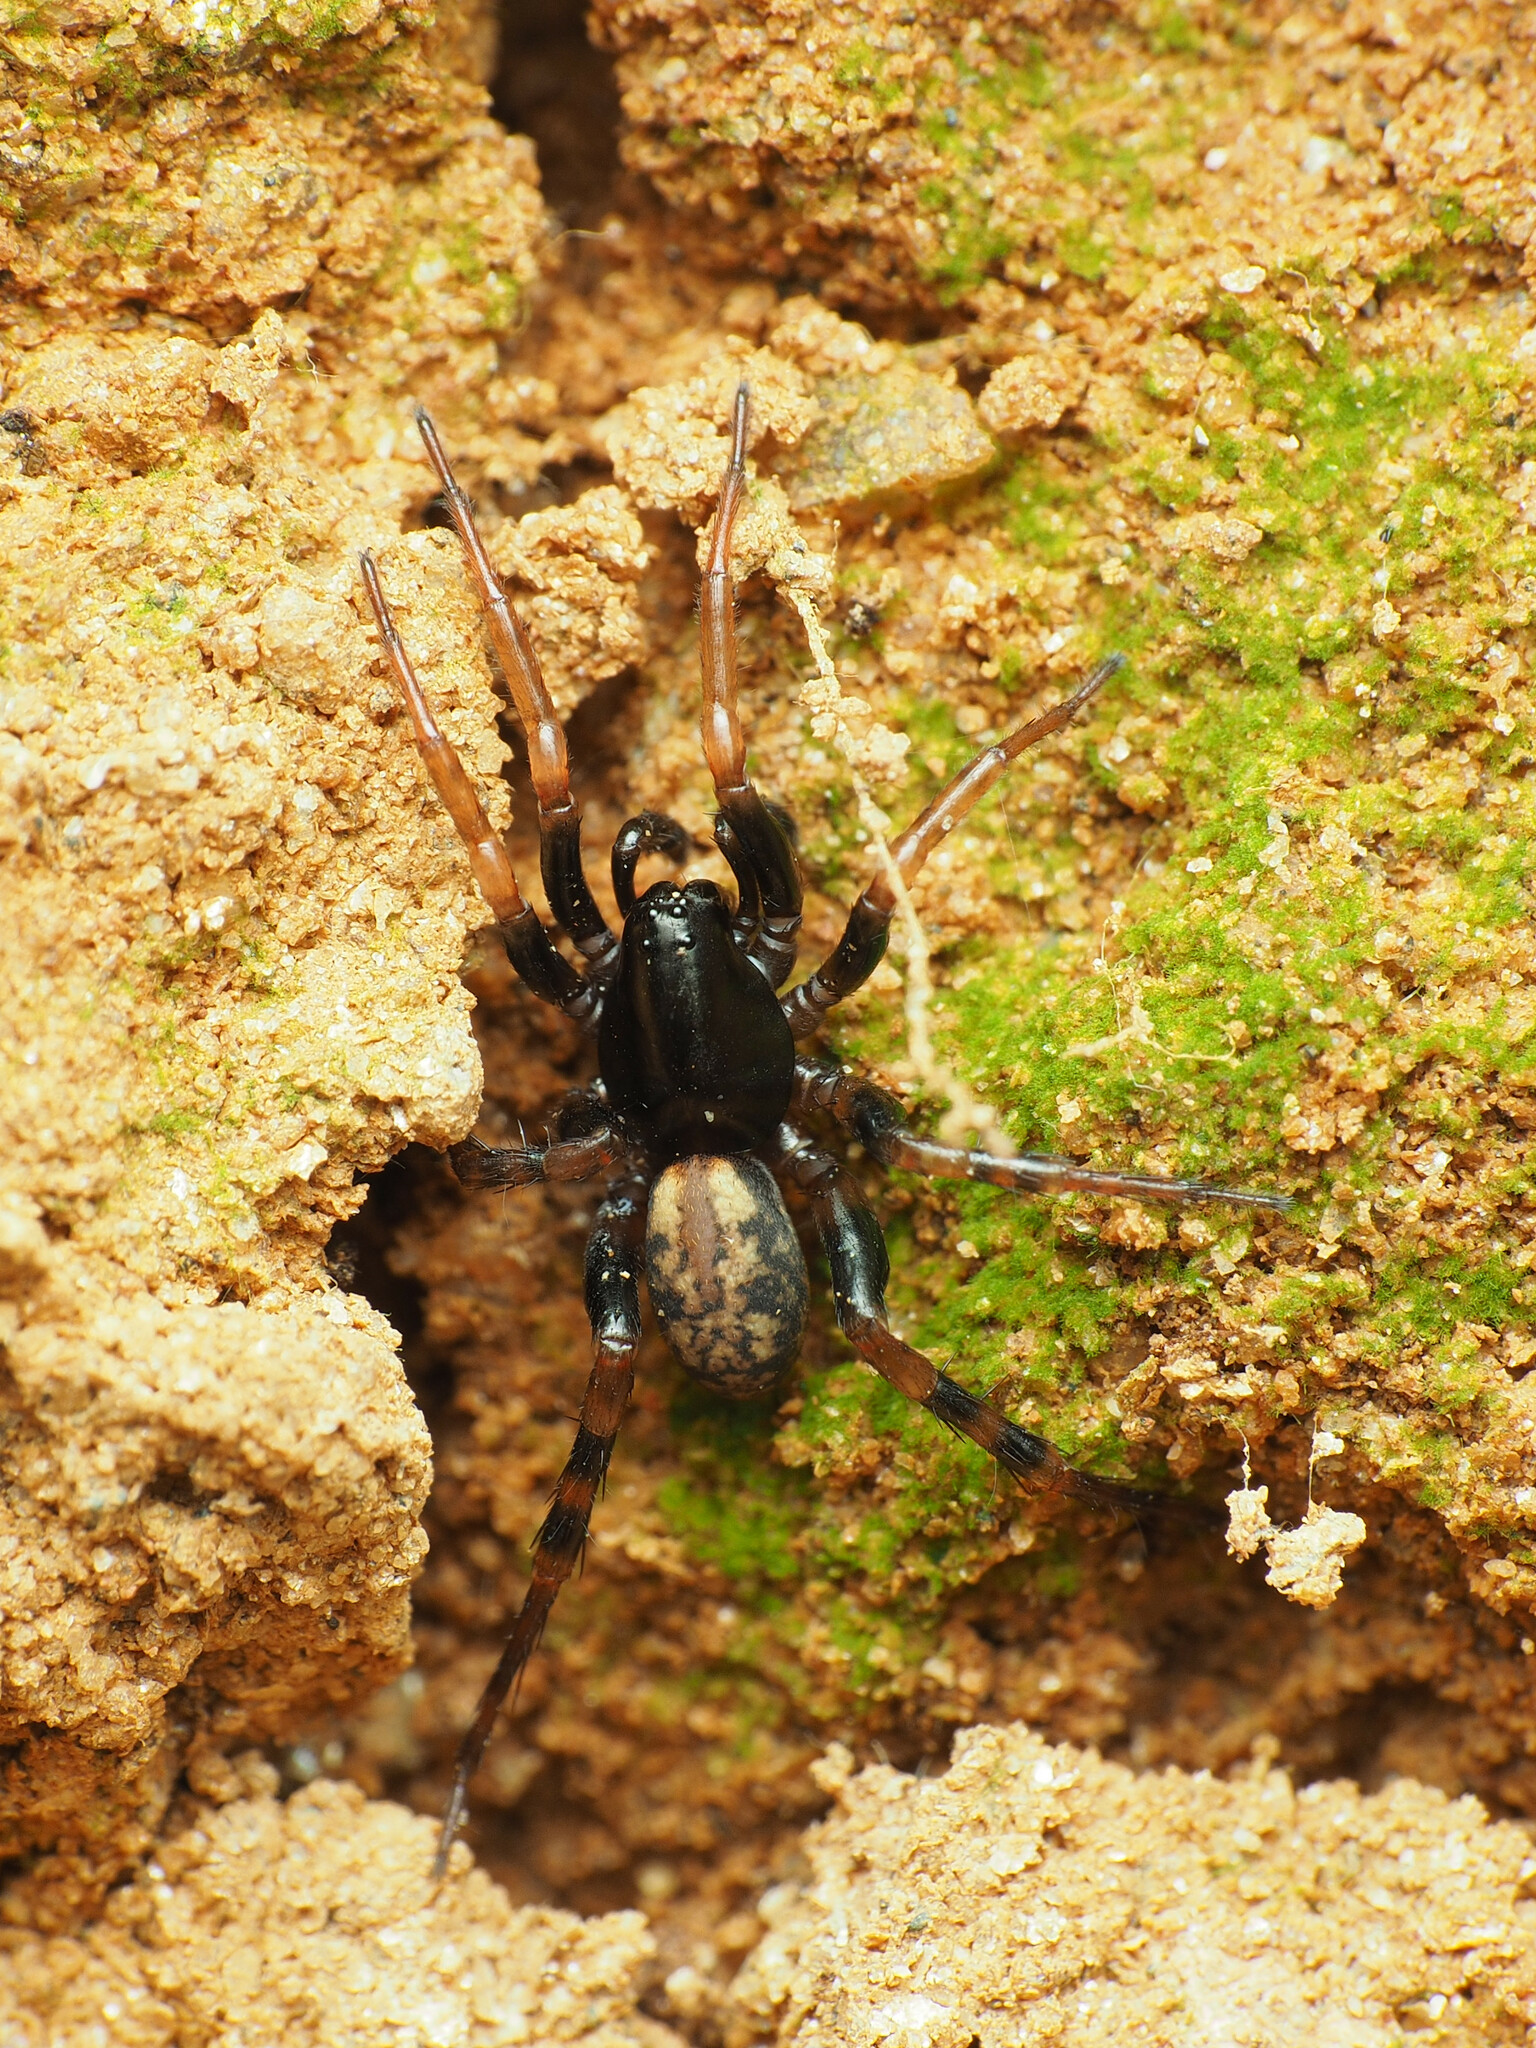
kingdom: Animalia
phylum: Arthropoda
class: Arachnida
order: Araneae
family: Lycosidae
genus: Allocosa
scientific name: Allocosa funerea
